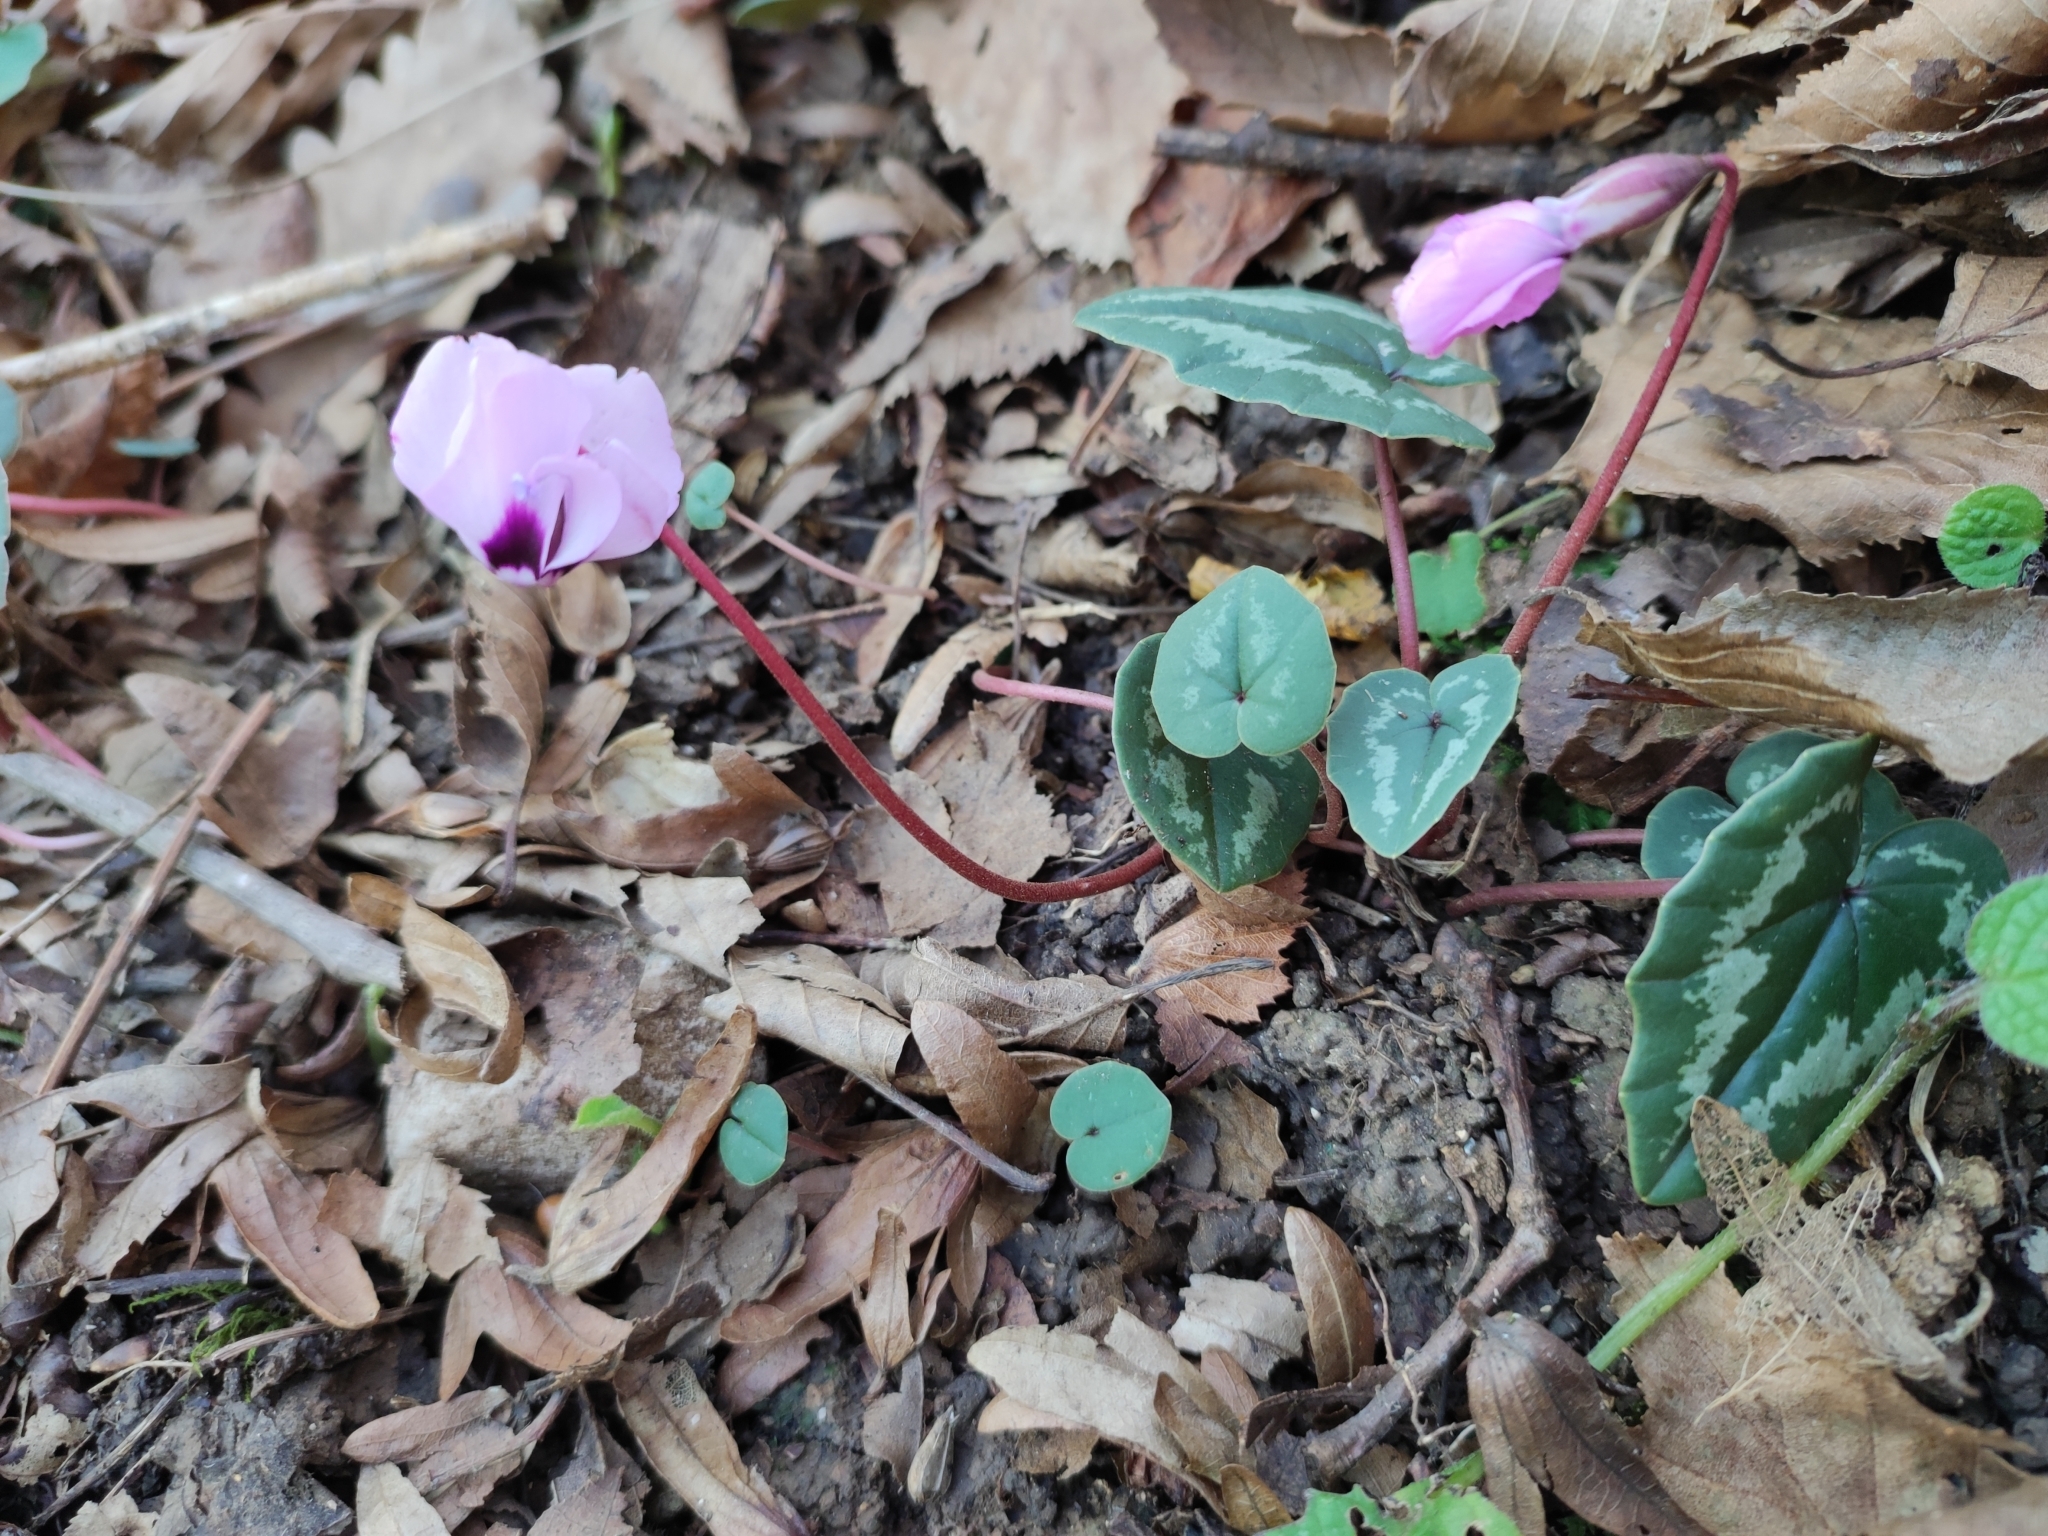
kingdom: Plantae
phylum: Tracheophyta
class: Magnoliopsida
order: Ericales
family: Primulaceae
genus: Cyclamen
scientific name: Cyclamen coum
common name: Eastern sowbread
